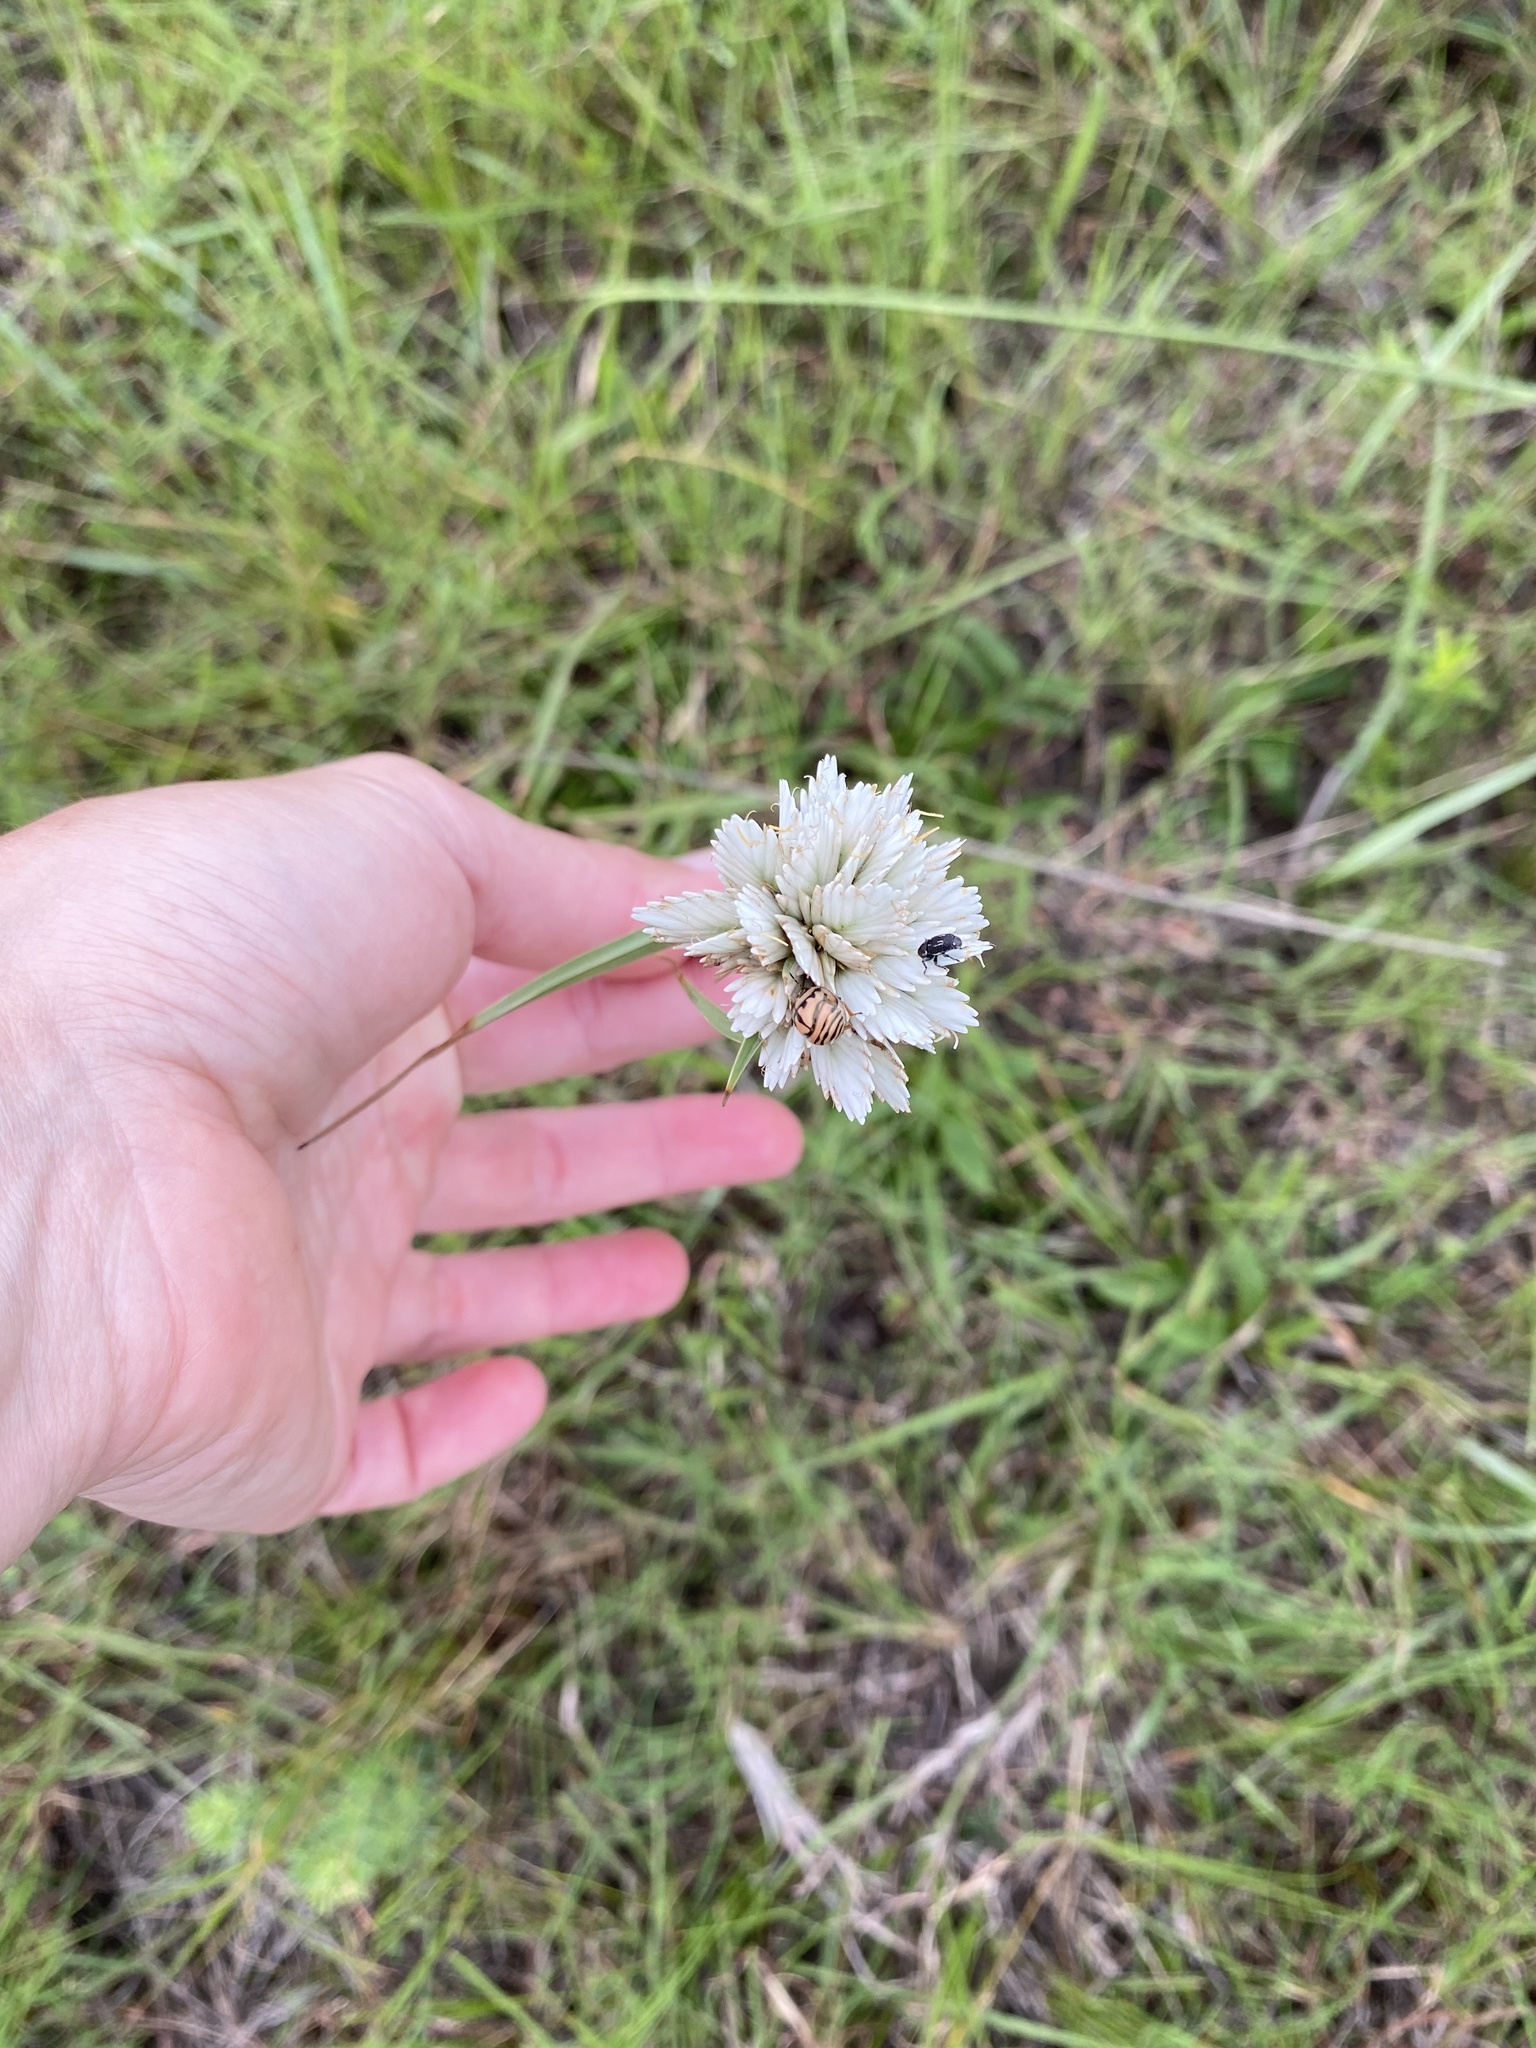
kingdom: Plantae
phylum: Tracheophyta
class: Liliopsida
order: Poales
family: Cyperaceae
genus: Cyperus
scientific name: Cyperus niveus
